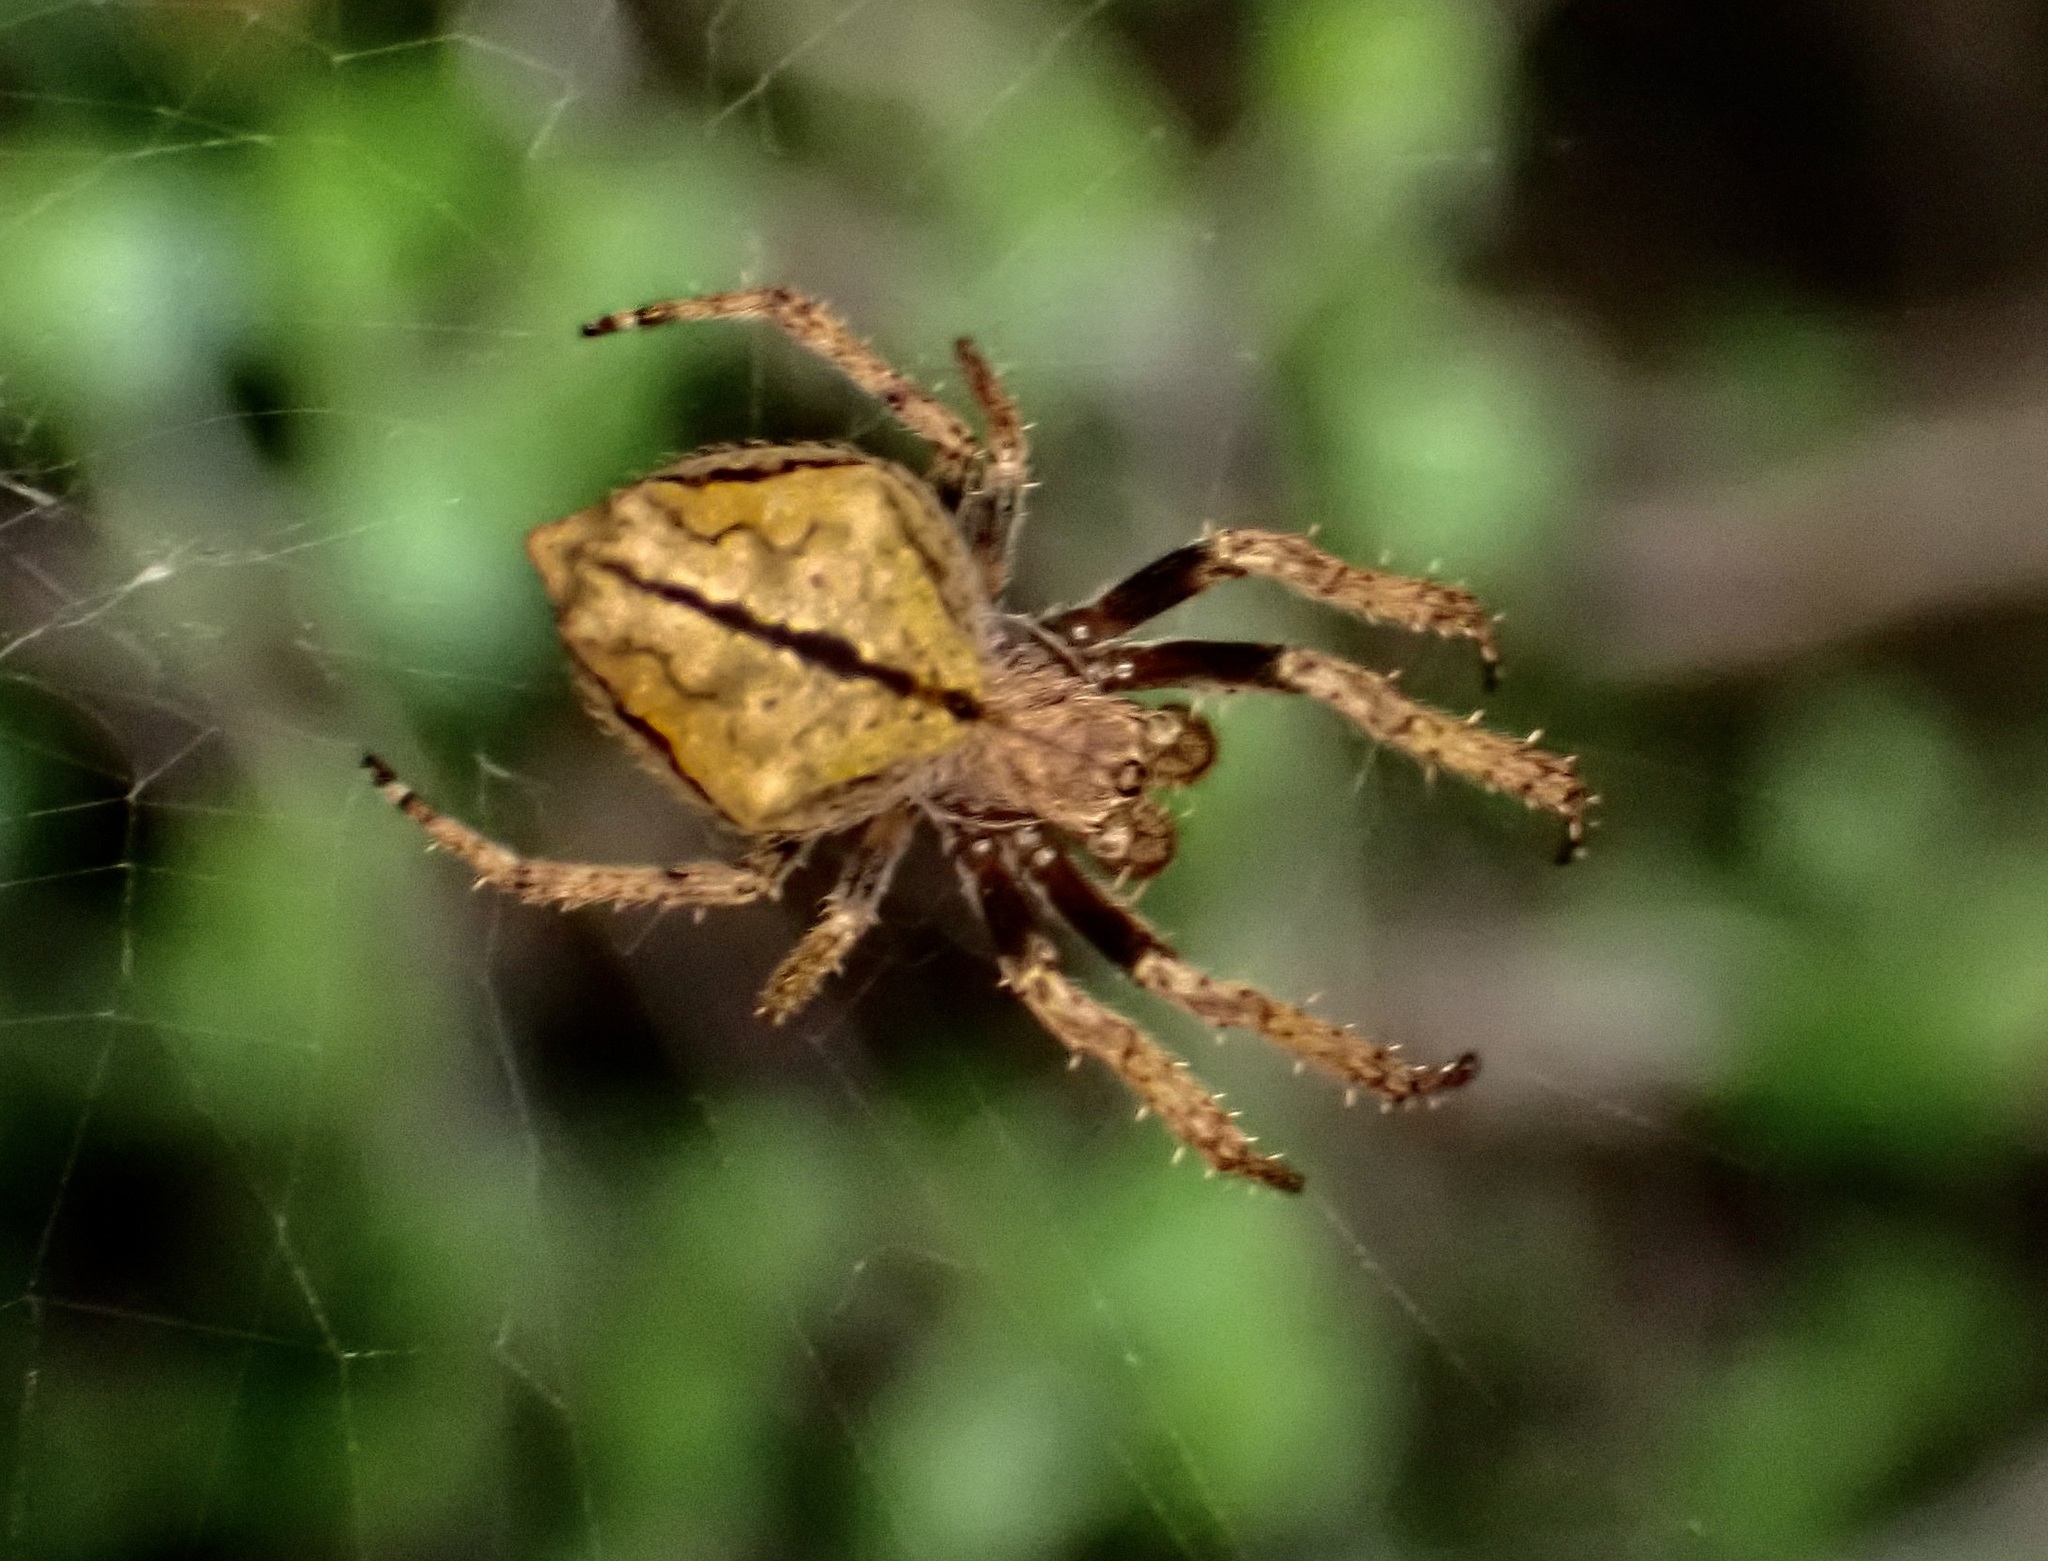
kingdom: Animalia
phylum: Arthropoda
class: Arachnida
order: Araneae
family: Araneidae
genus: Eriophora
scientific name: Eriophora pustulosa
